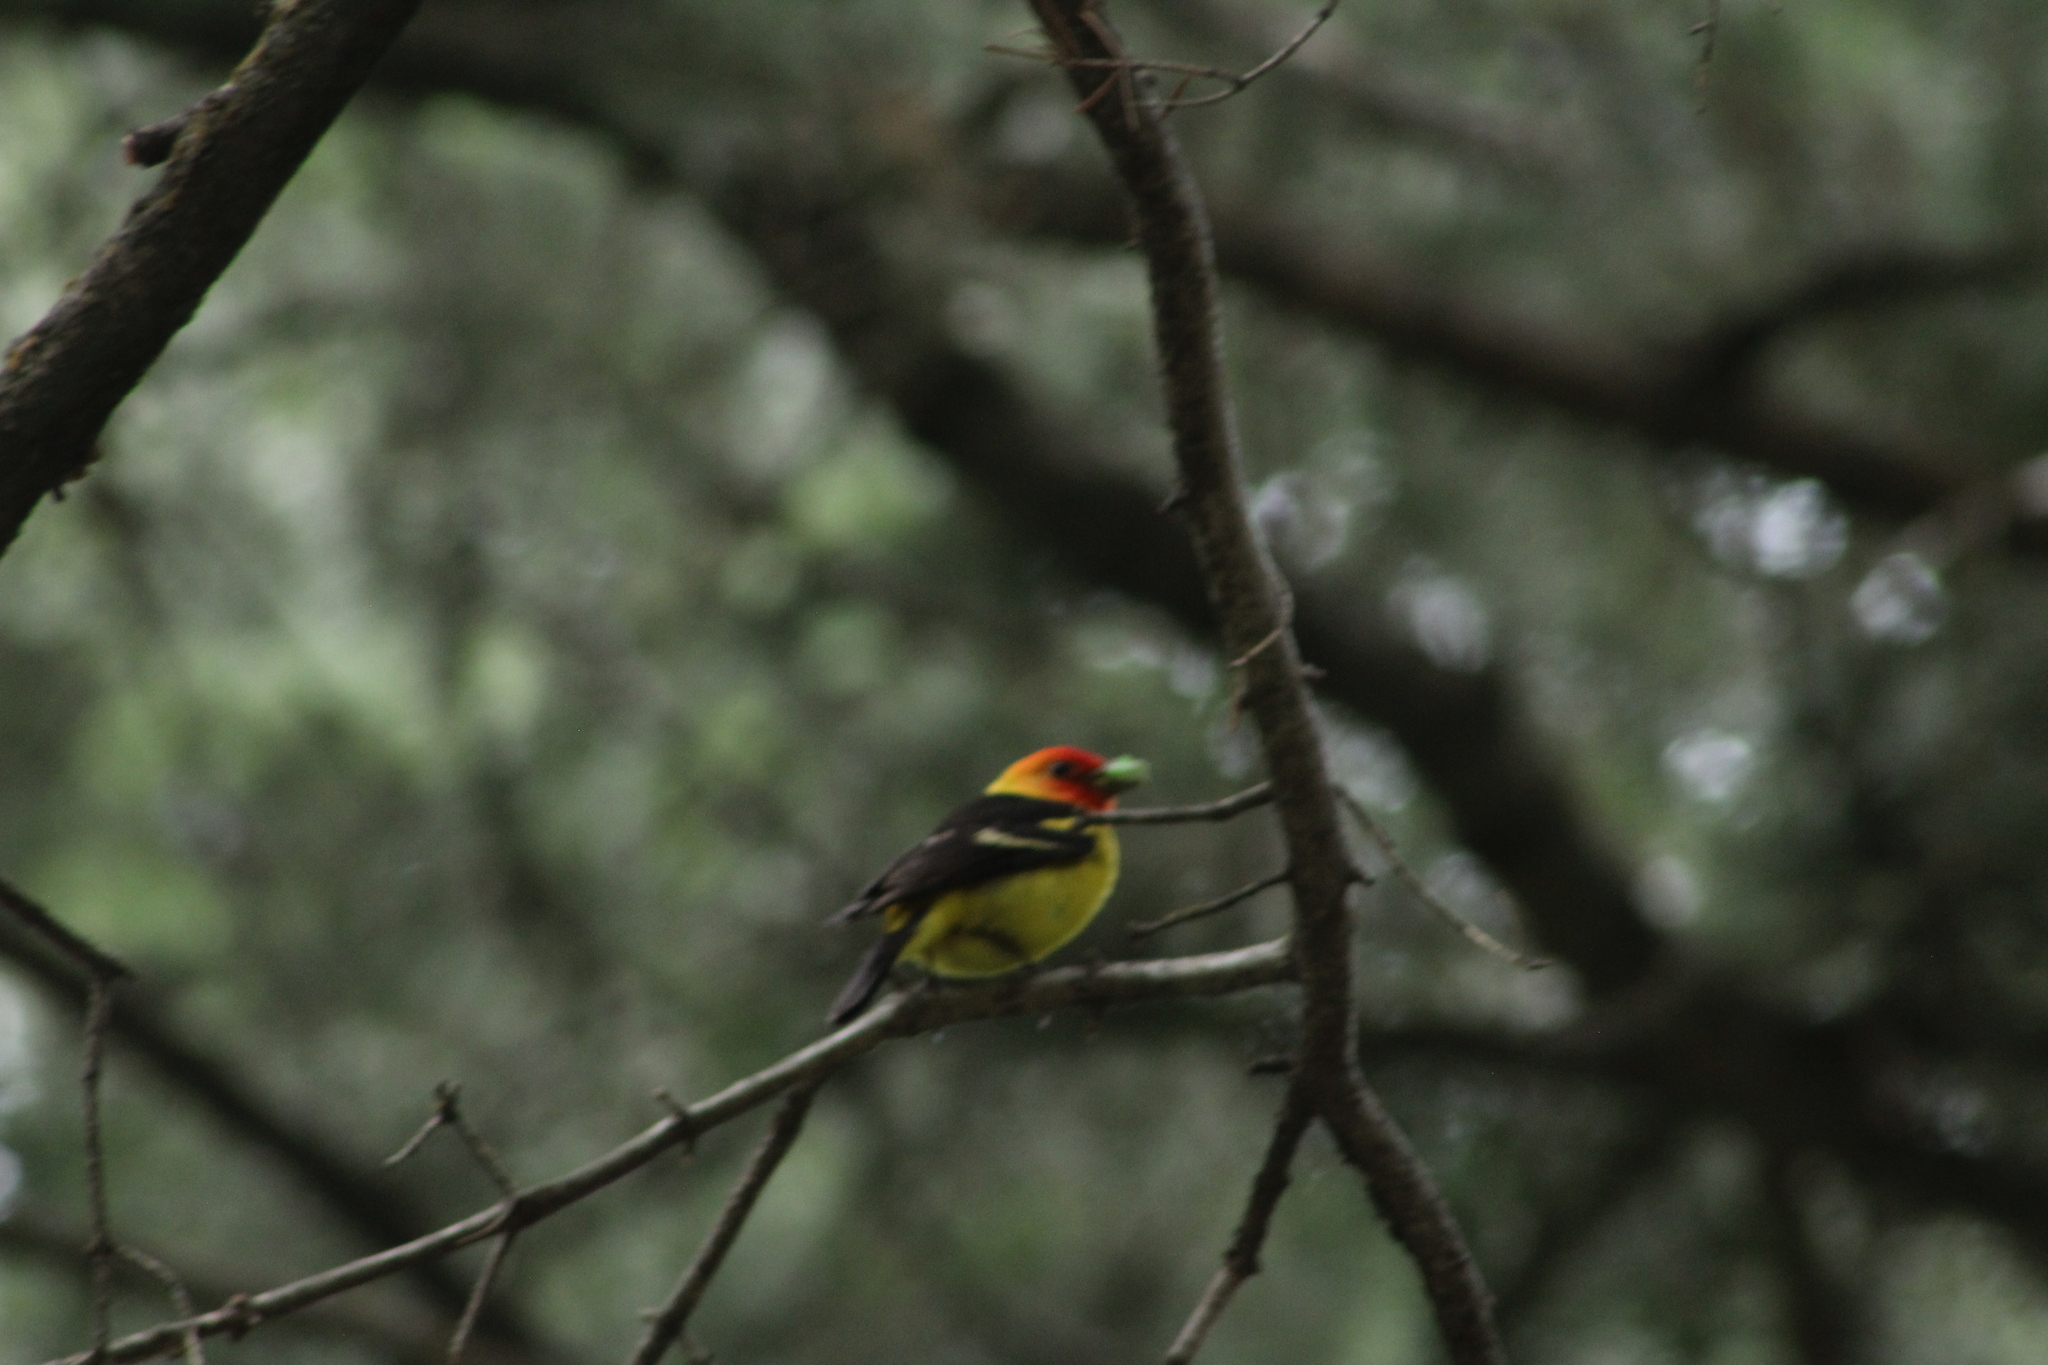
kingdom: Animalia
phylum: Chordata
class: Aves
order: Passeriformes
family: Cardinalidae
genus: Piranga
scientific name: Piranga ludoviciana
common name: Western tanager
